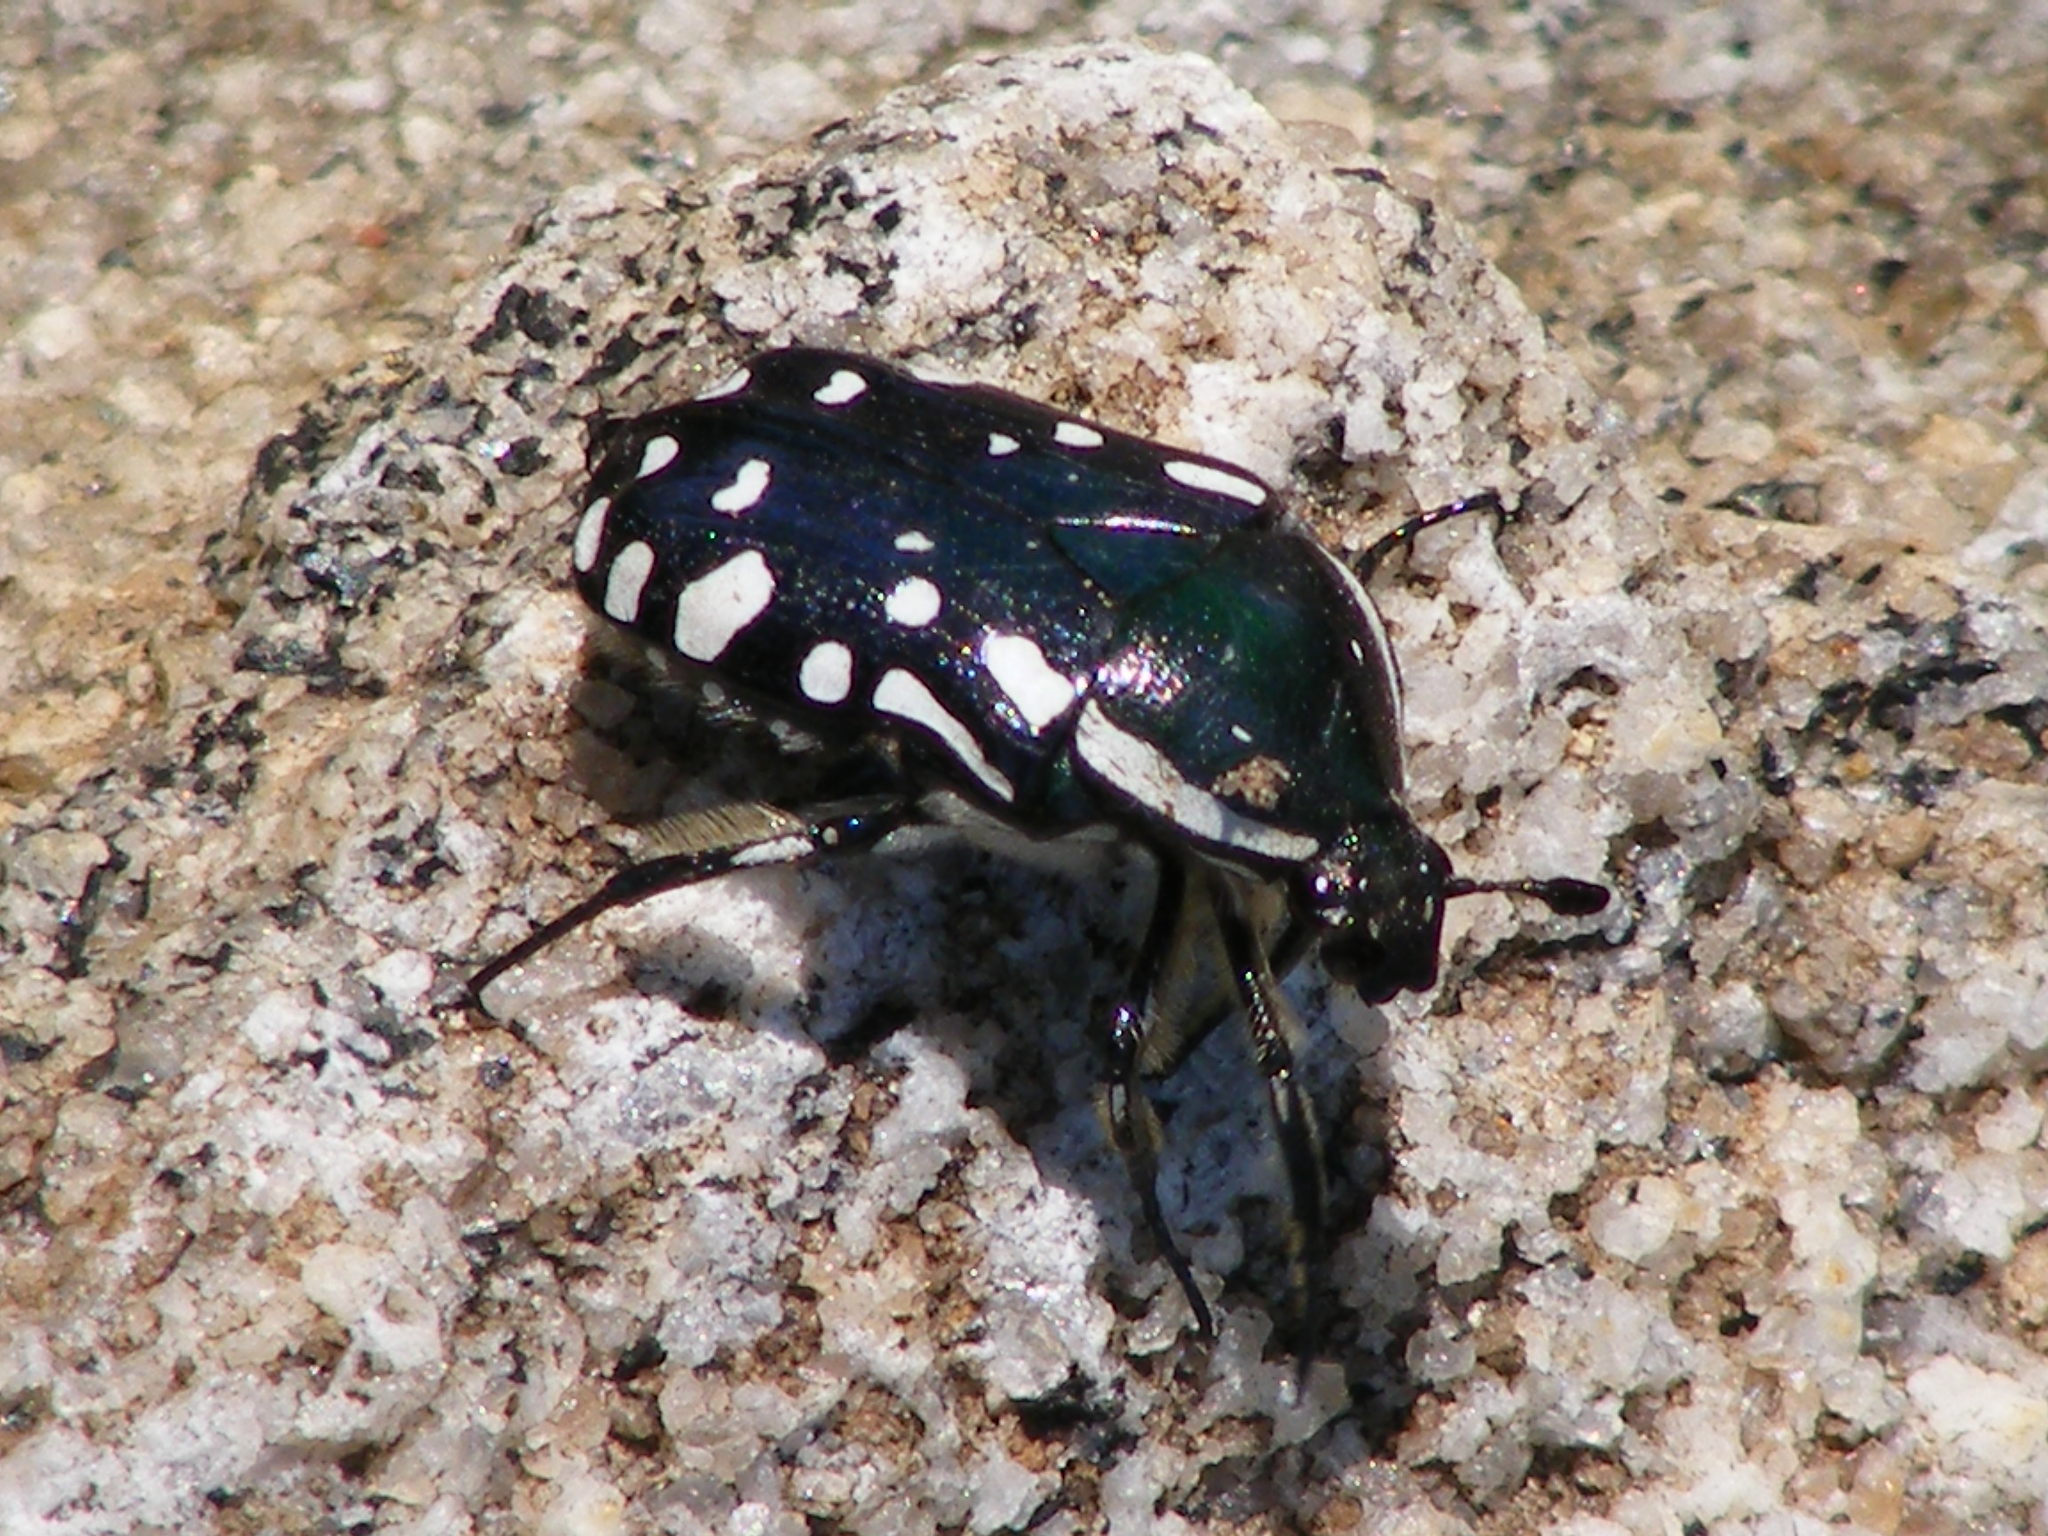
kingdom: Animalia
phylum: Arthropoda
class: Insecta
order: Coleoptera
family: Scarabaeidae
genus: Rhabdotis
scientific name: Rhabdotis albinigra
